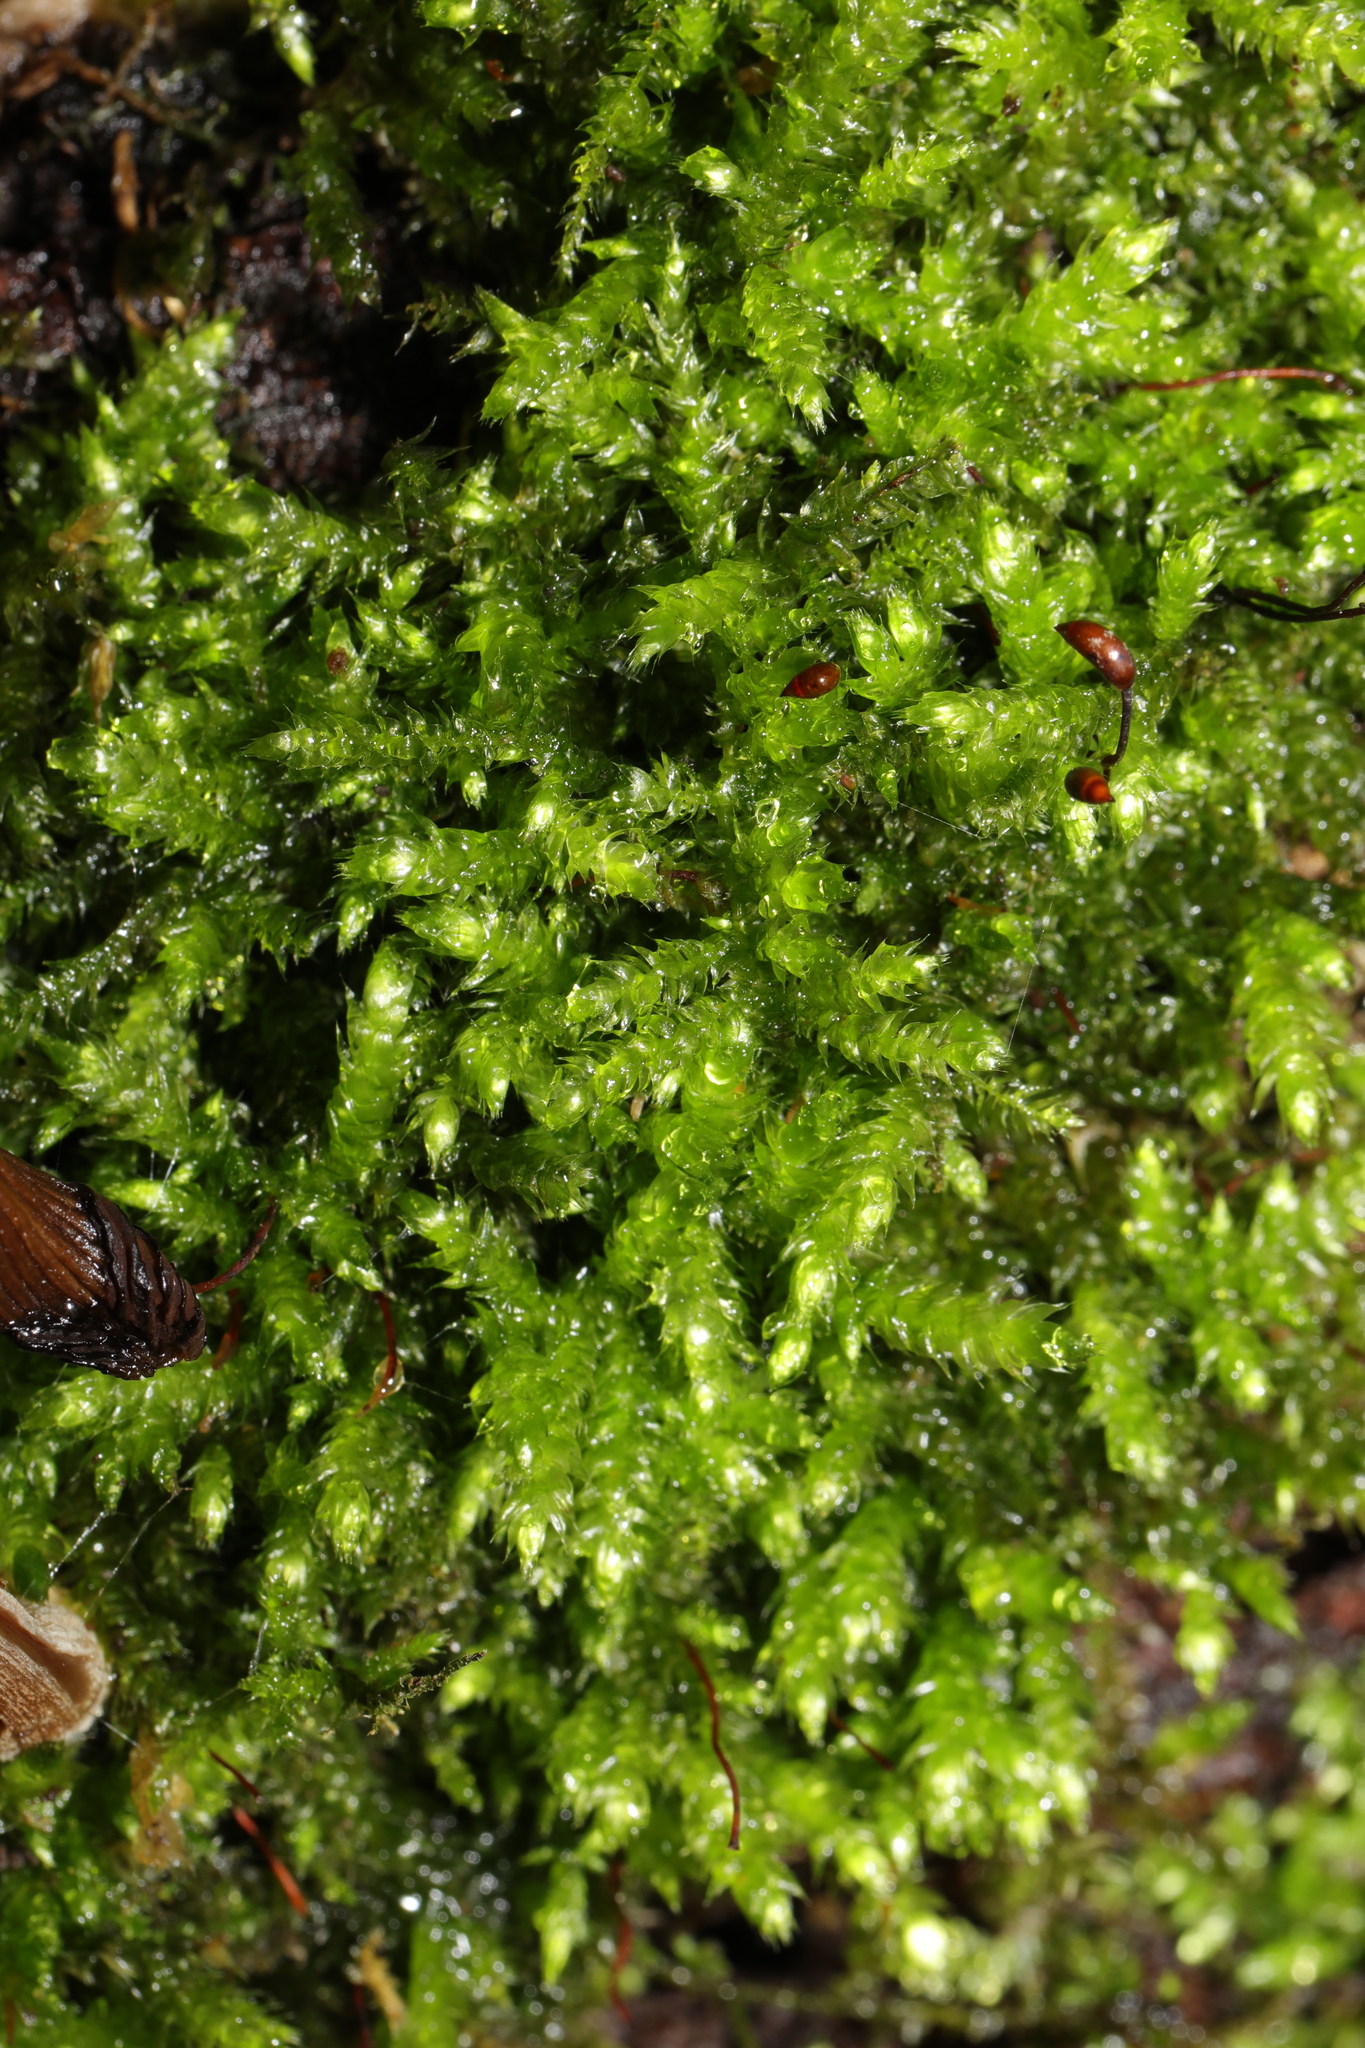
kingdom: Plantae
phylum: Bryophyta
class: Bryopsida
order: Hypnales
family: Brachytheciaceae
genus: Brachythecium
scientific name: Brachythecium rutabulum
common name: Rough-stalked feather-moss
